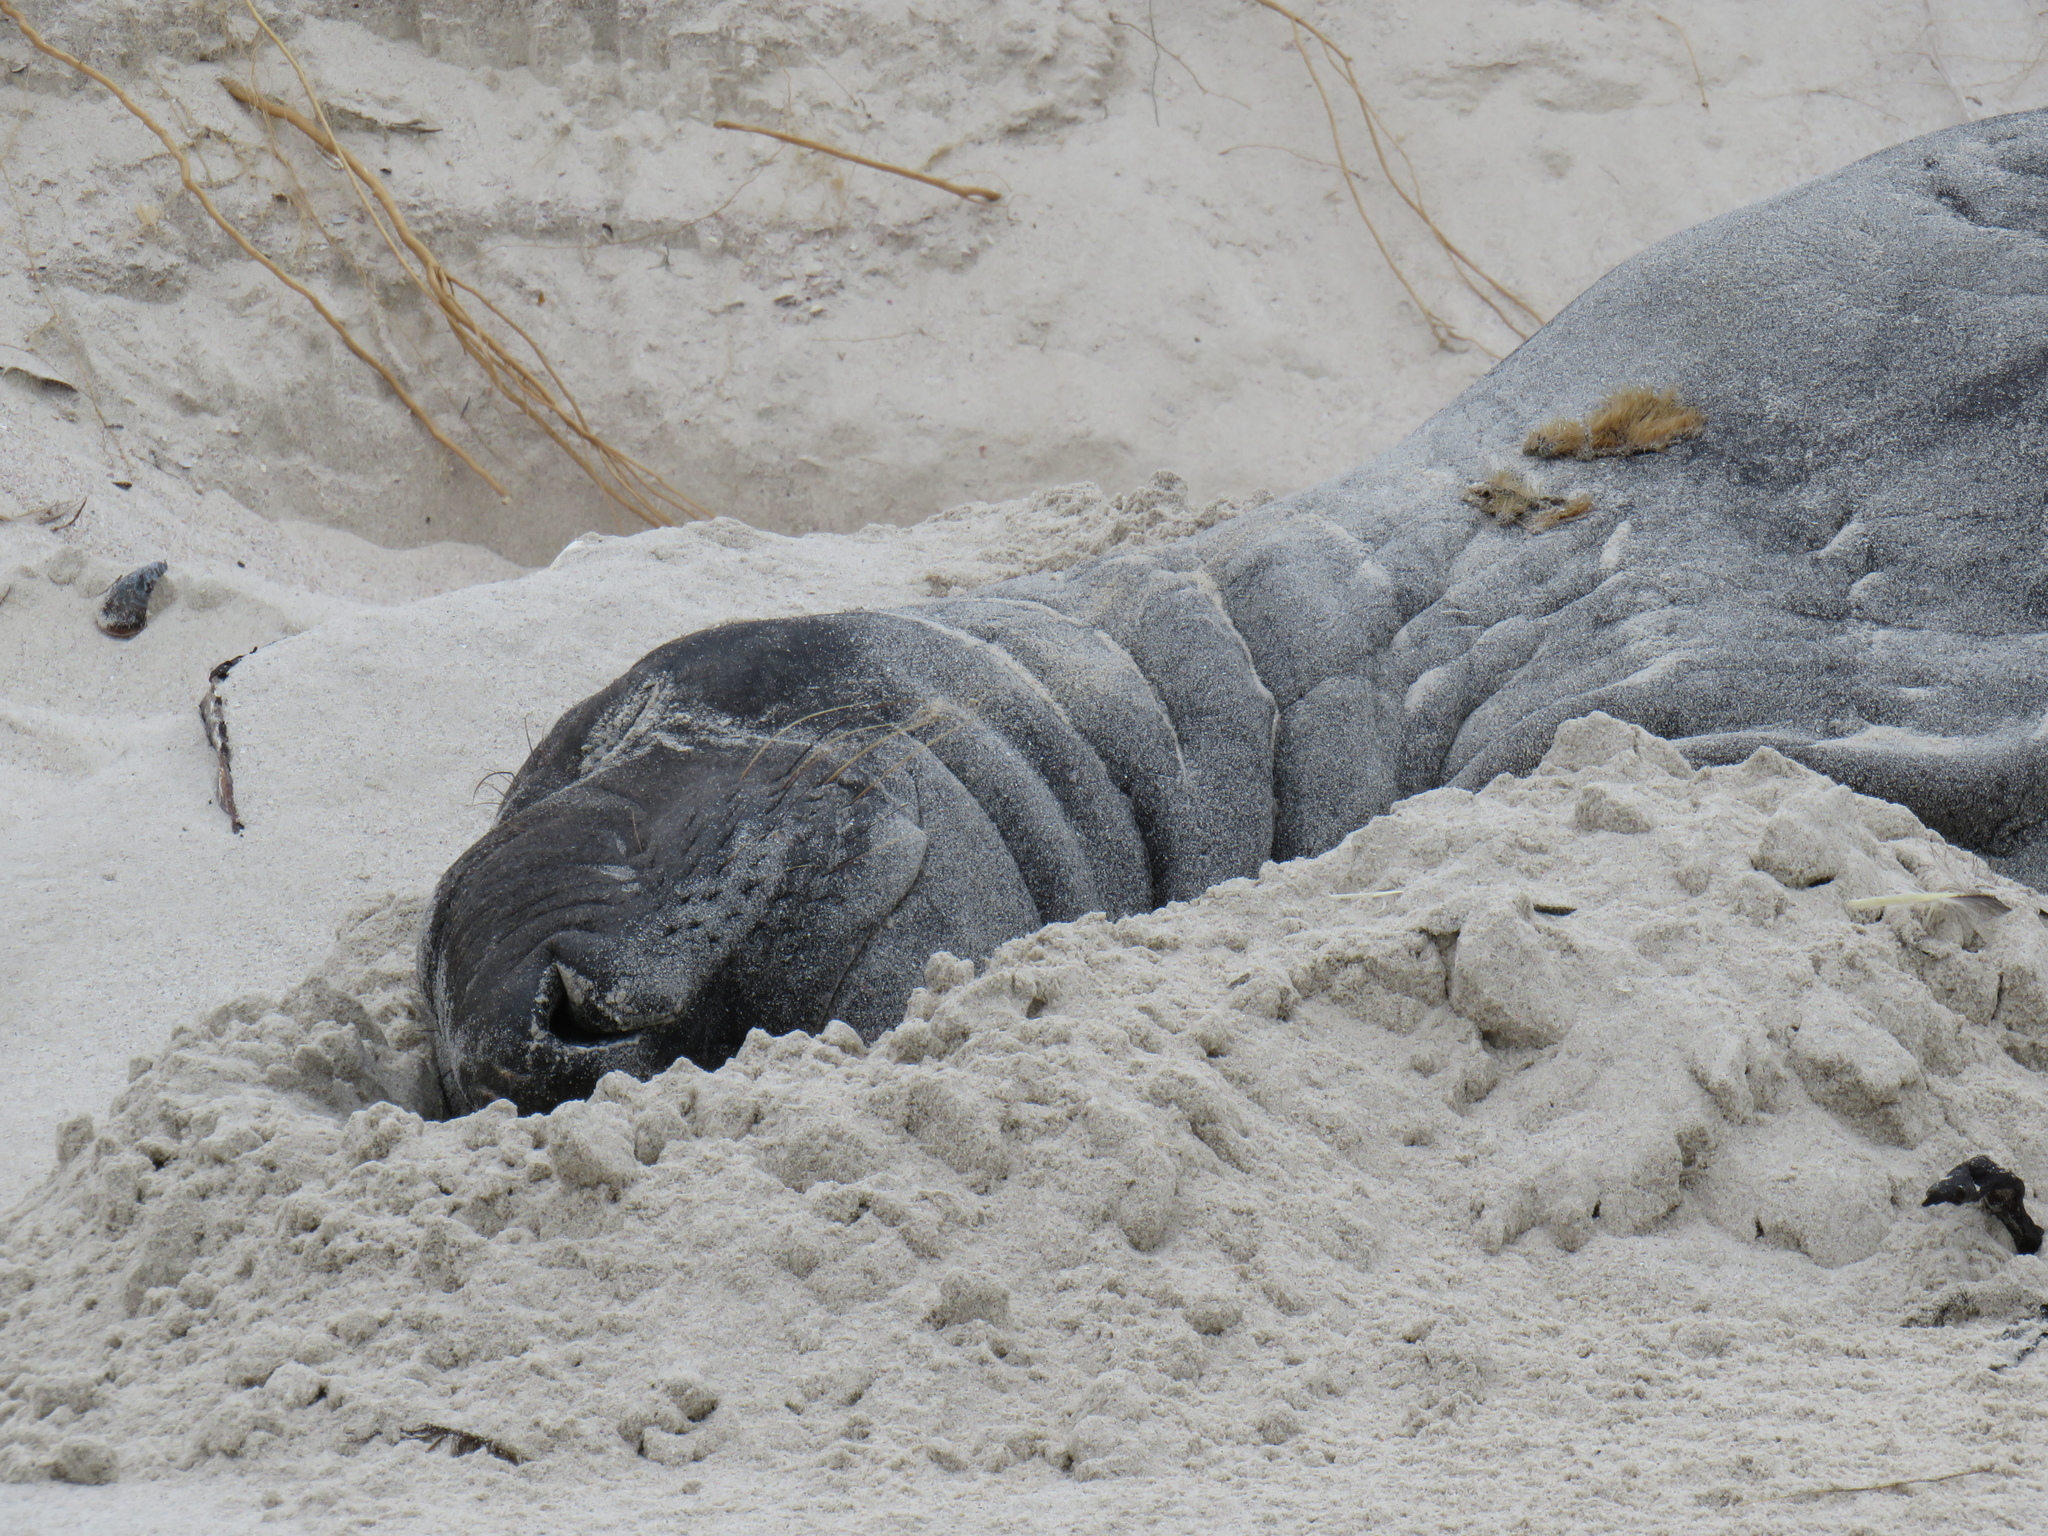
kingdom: Animalia
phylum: Chordata
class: Mammalia
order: Carnivora
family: Phocidae
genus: Mirounga
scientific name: Mirounga leonina
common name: Southern elephant seal
